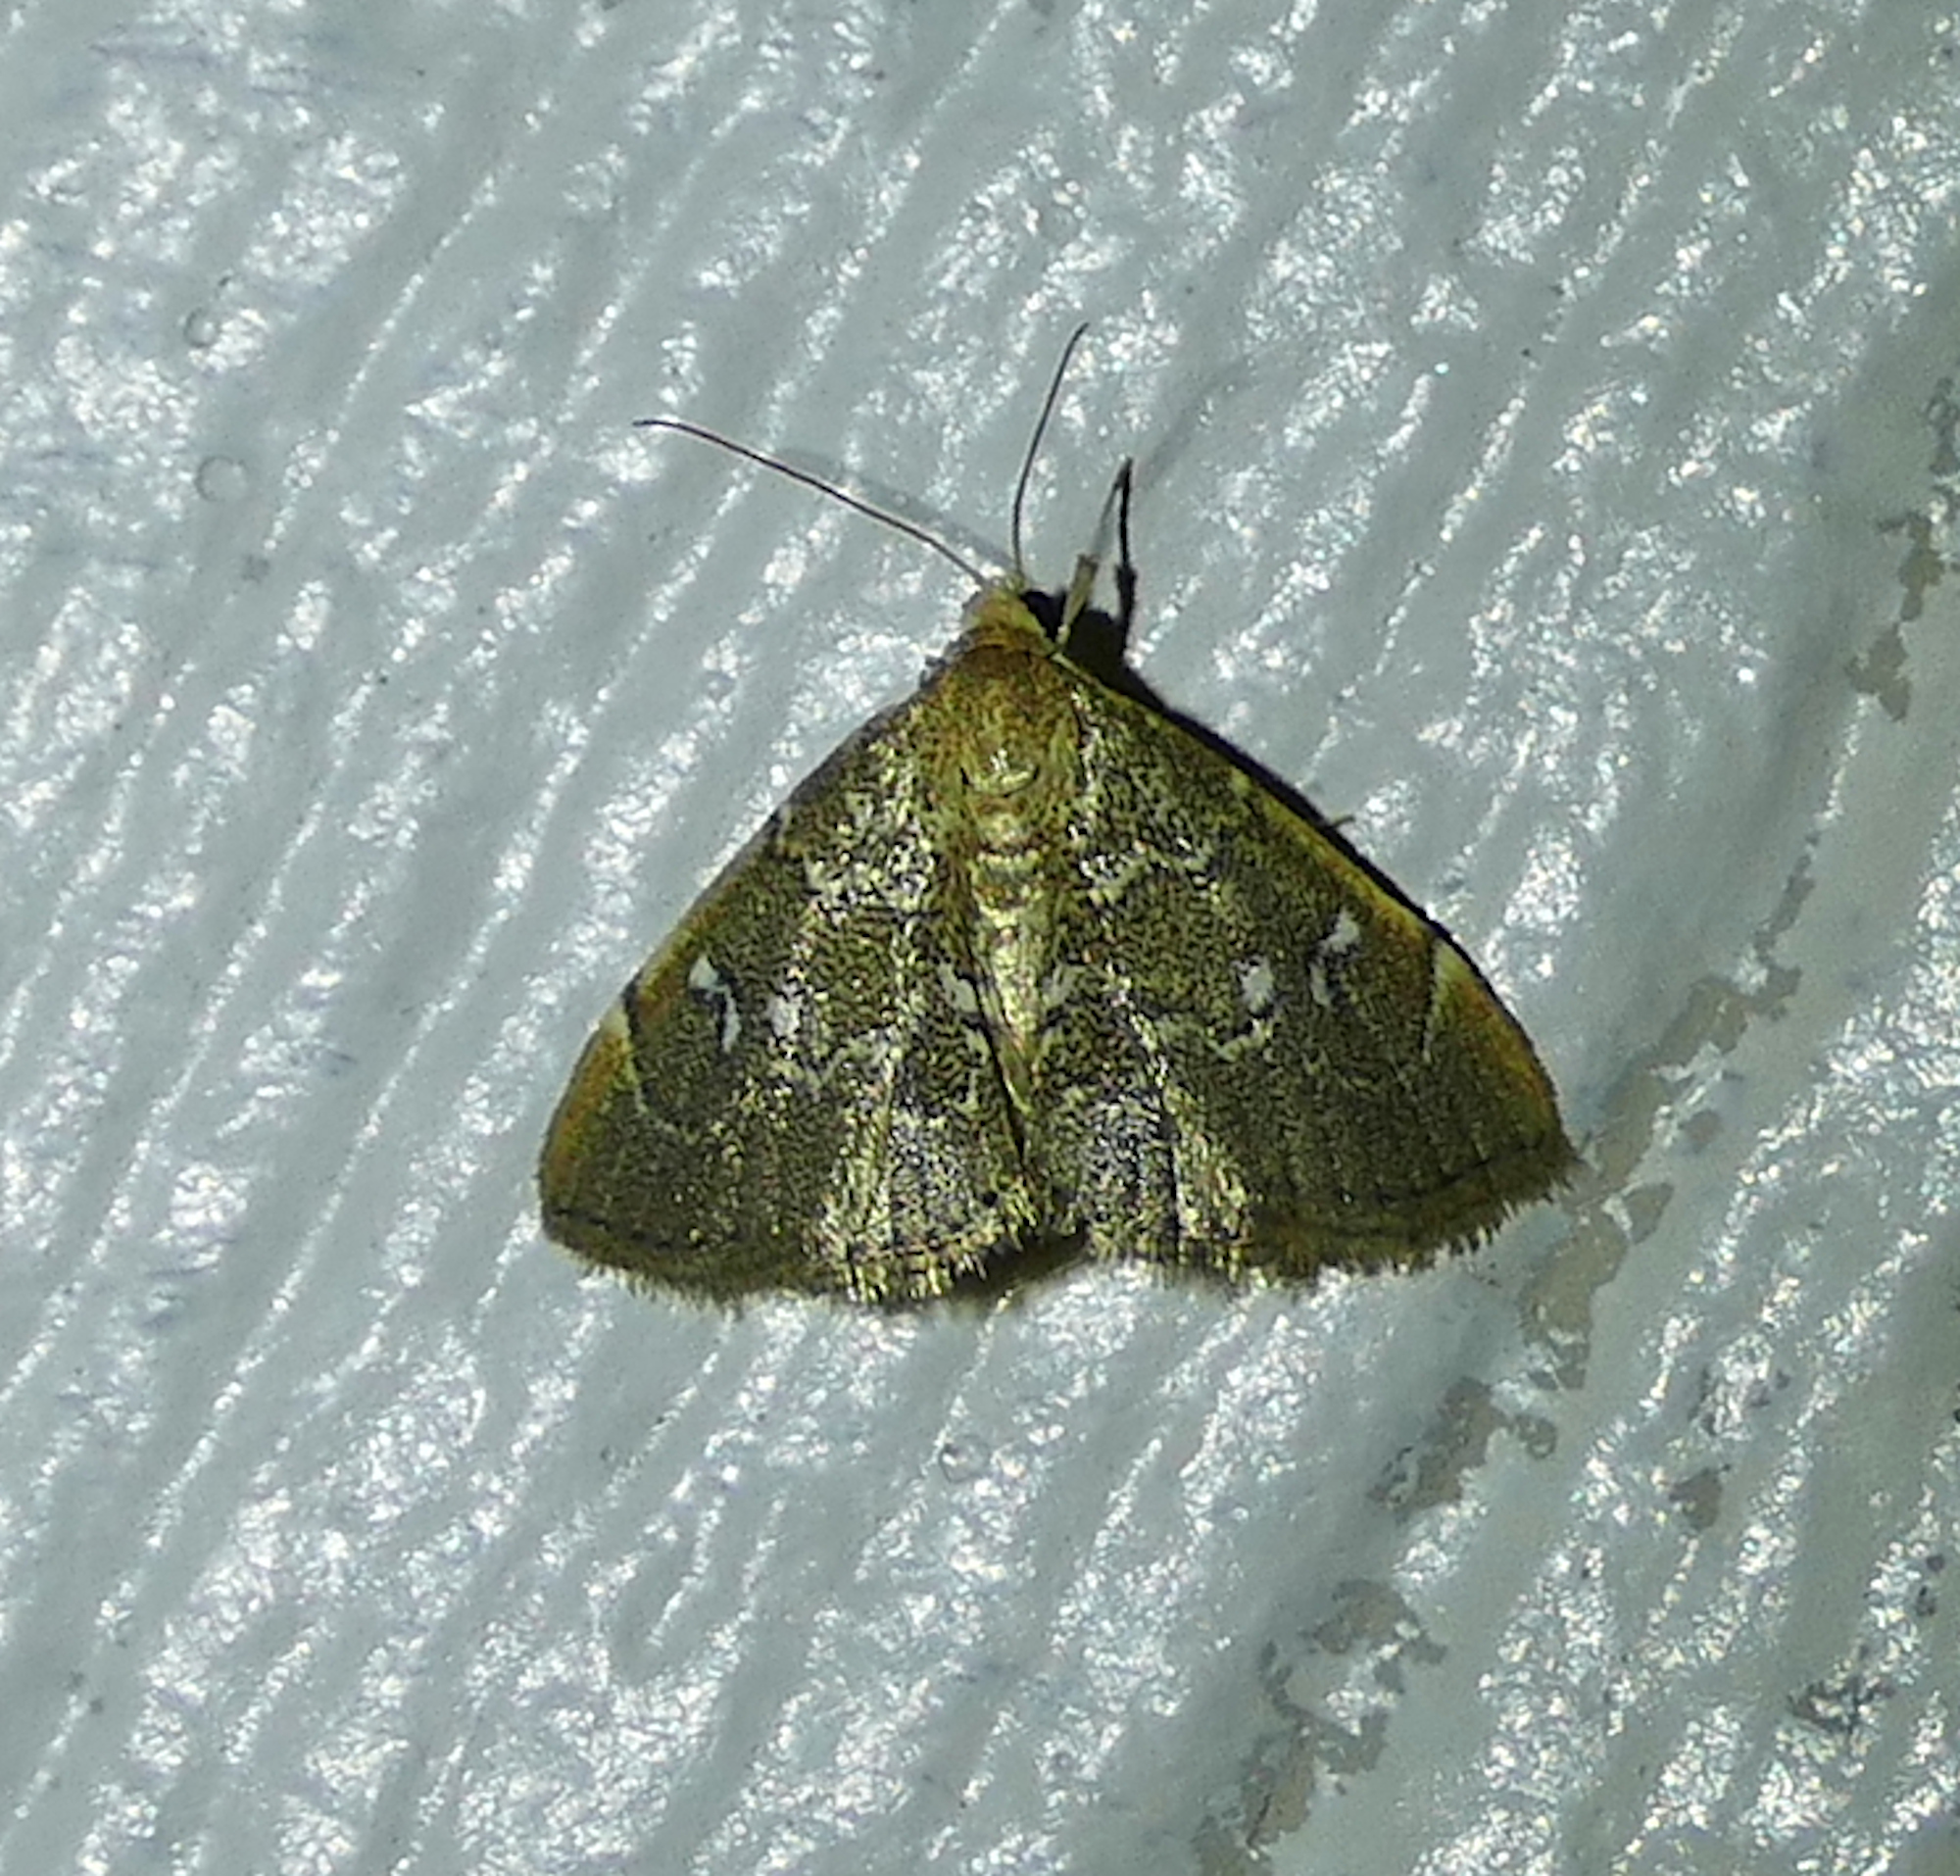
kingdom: Animalia
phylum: Arthropoda
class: Insecta
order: Lepidoptera
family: Crambidae
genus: Nephrogramma
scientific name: Nephrogramma separata
